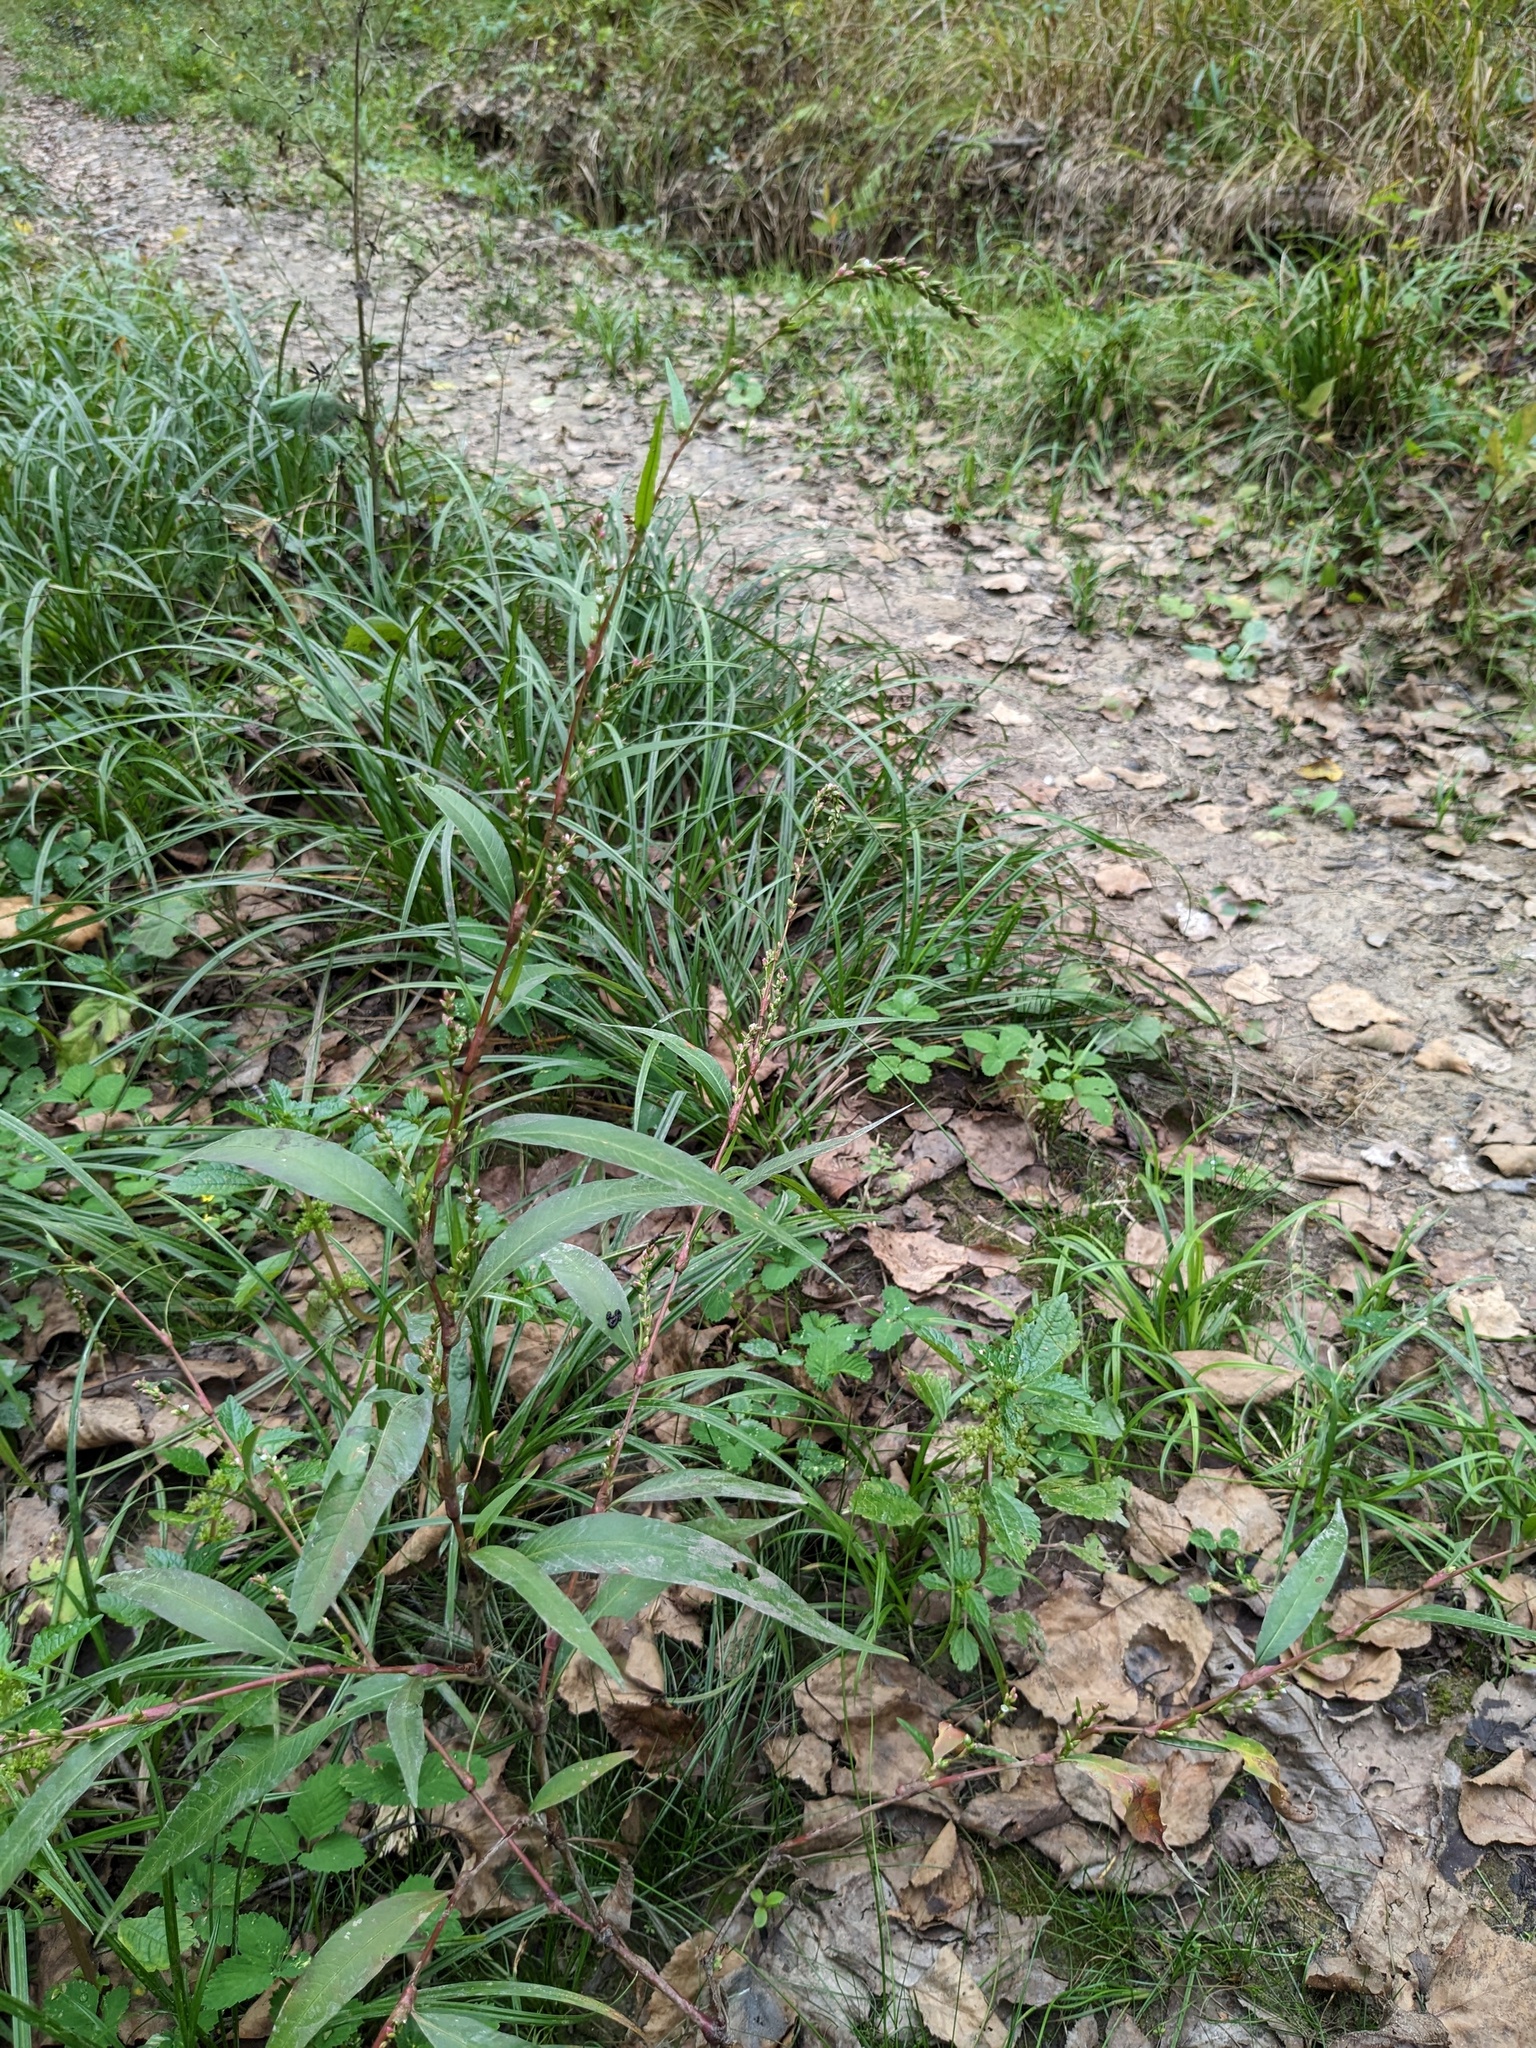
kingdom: Plantae
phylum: Tracheophyta
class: Magnoliopsida
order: Caryophyllales
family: Polygonaceae
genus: Persicaria
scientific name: Persicaria hydropiper
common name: Water-pepper
